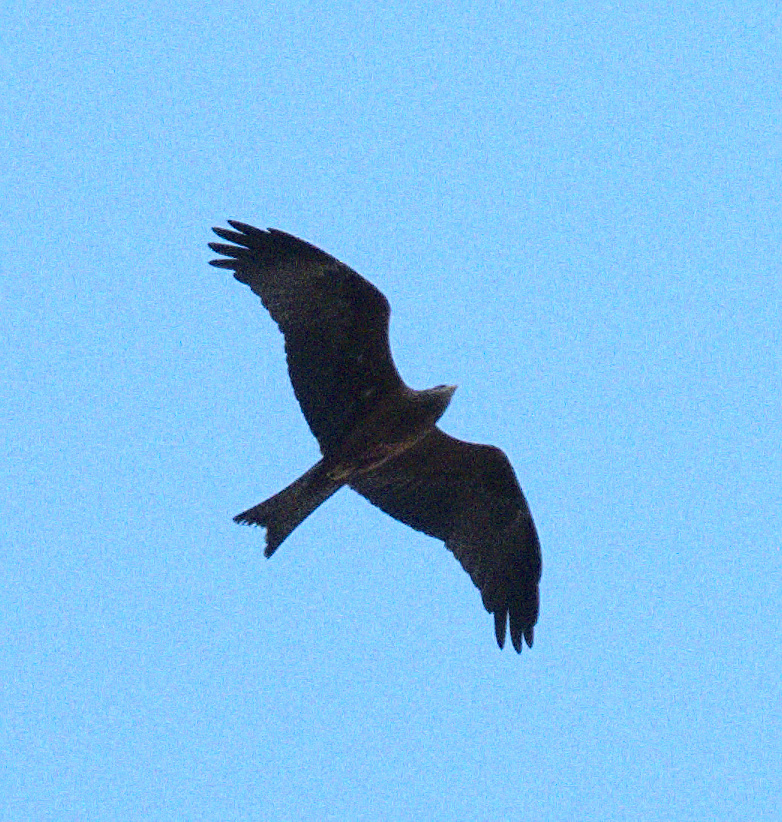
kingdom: Animalia
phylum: Chordata
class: Aves
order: Accipitriformes
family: Accipitridae
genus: Milvus
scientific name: Milvus migrans
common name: Black kite
